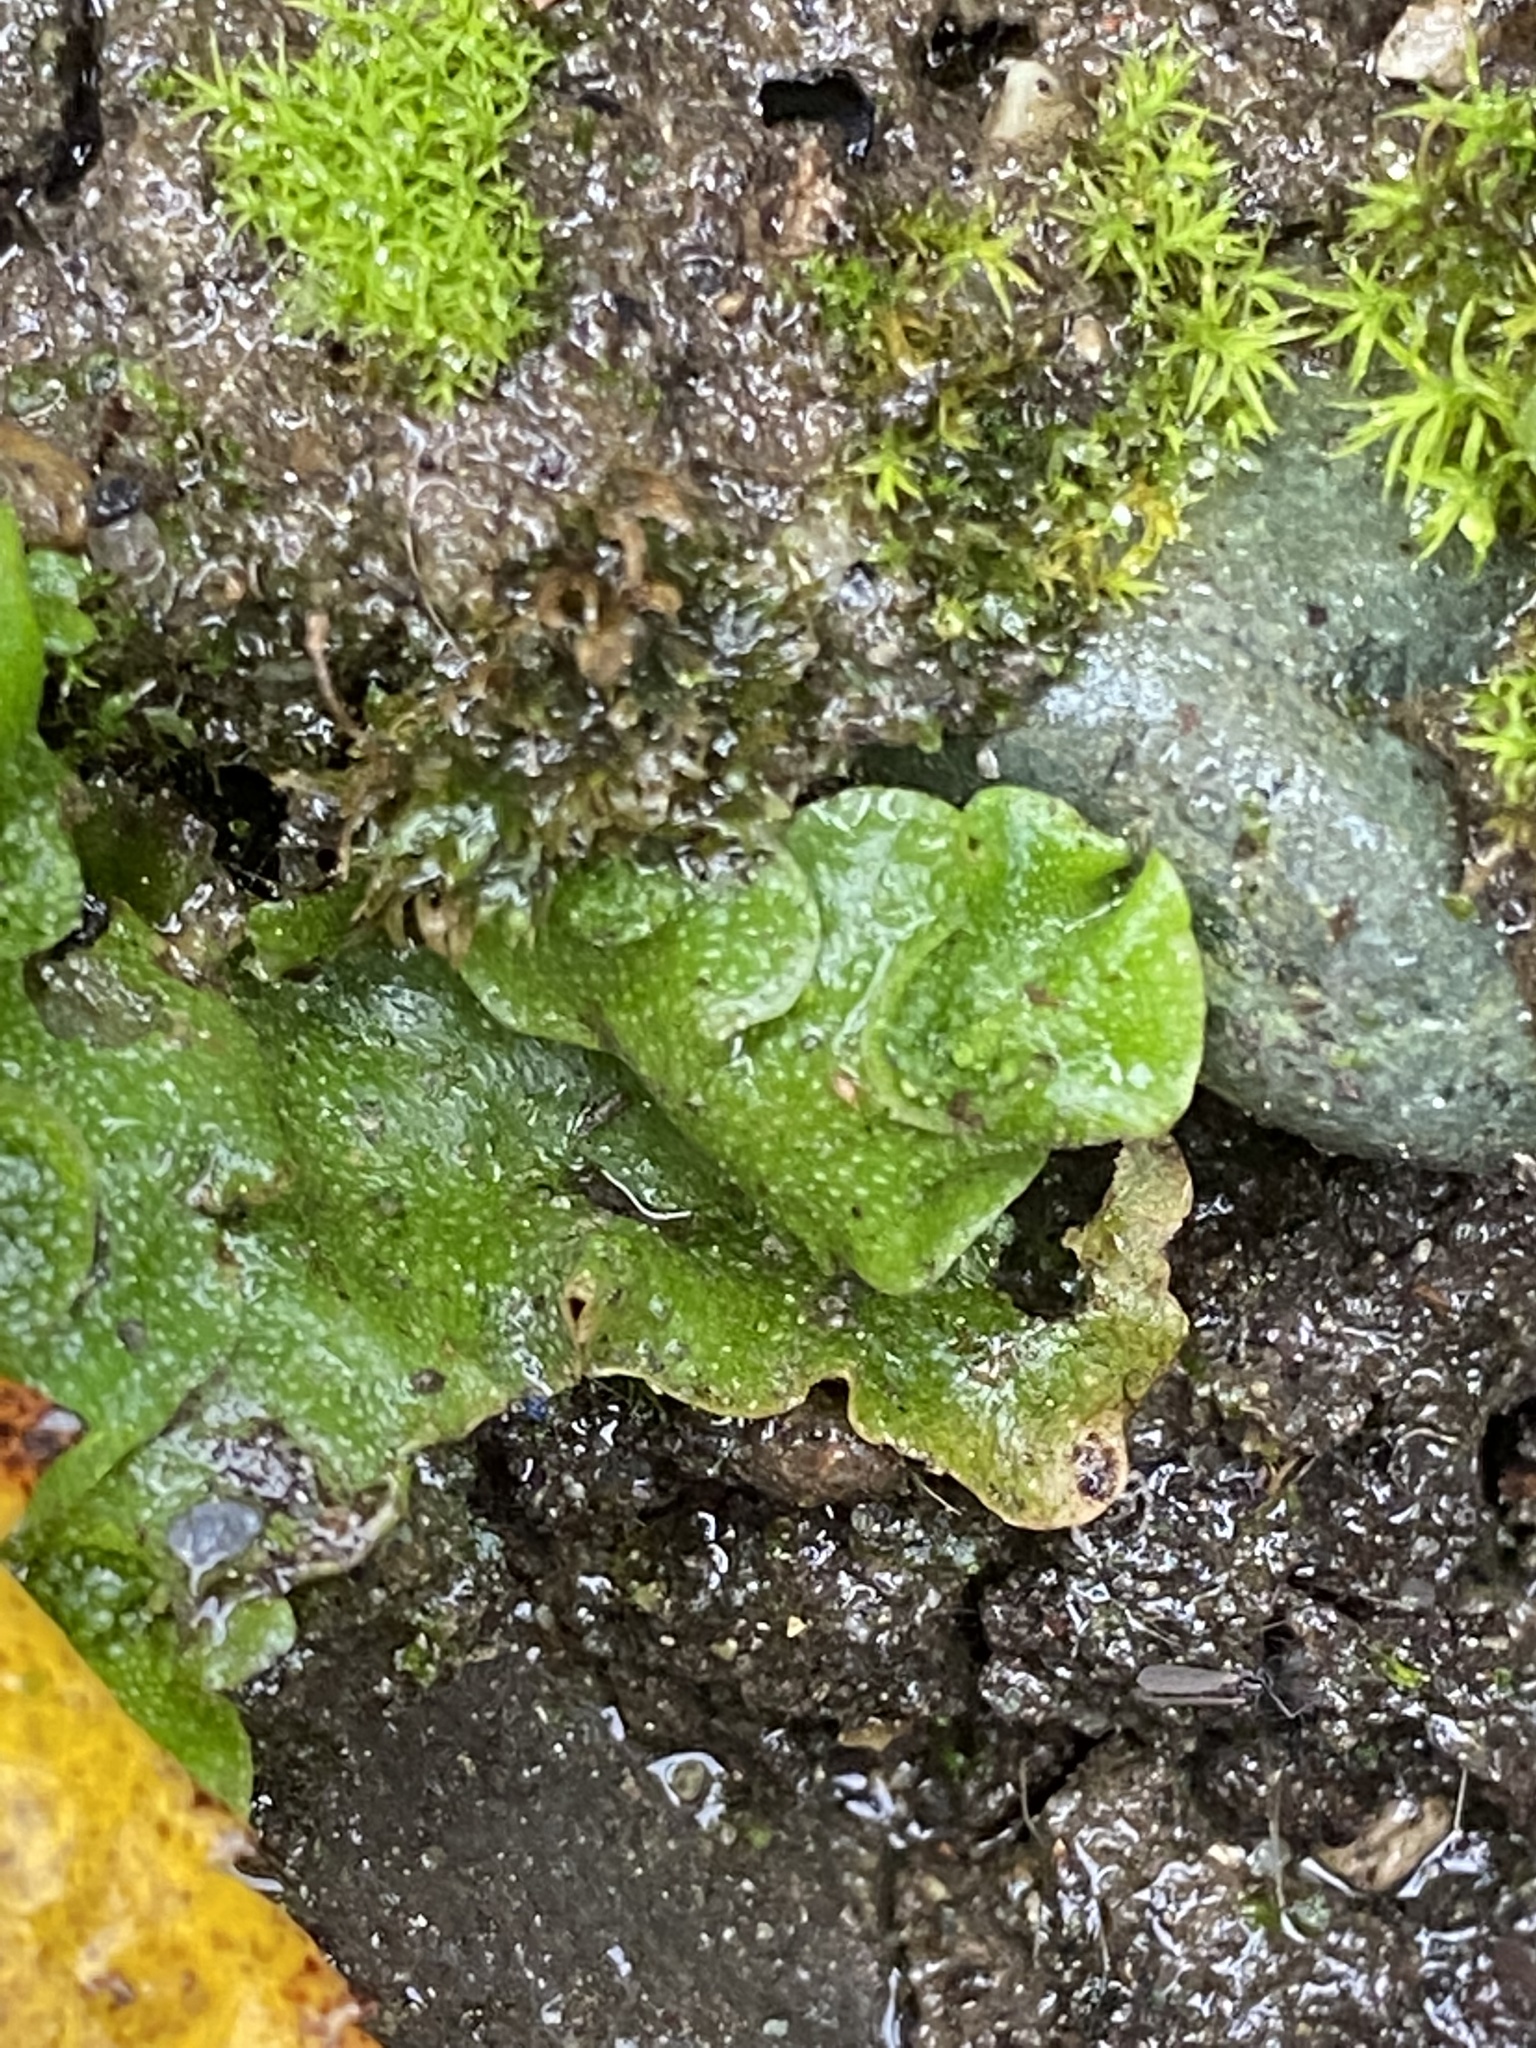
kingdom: Plantae
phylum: Marchantiophyta
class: Marchantiopsida
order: Lunulariales
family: Lunulariaceae
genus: Lunularia
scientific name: Lunularia cruciata
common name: Crescent-cup liverwort
